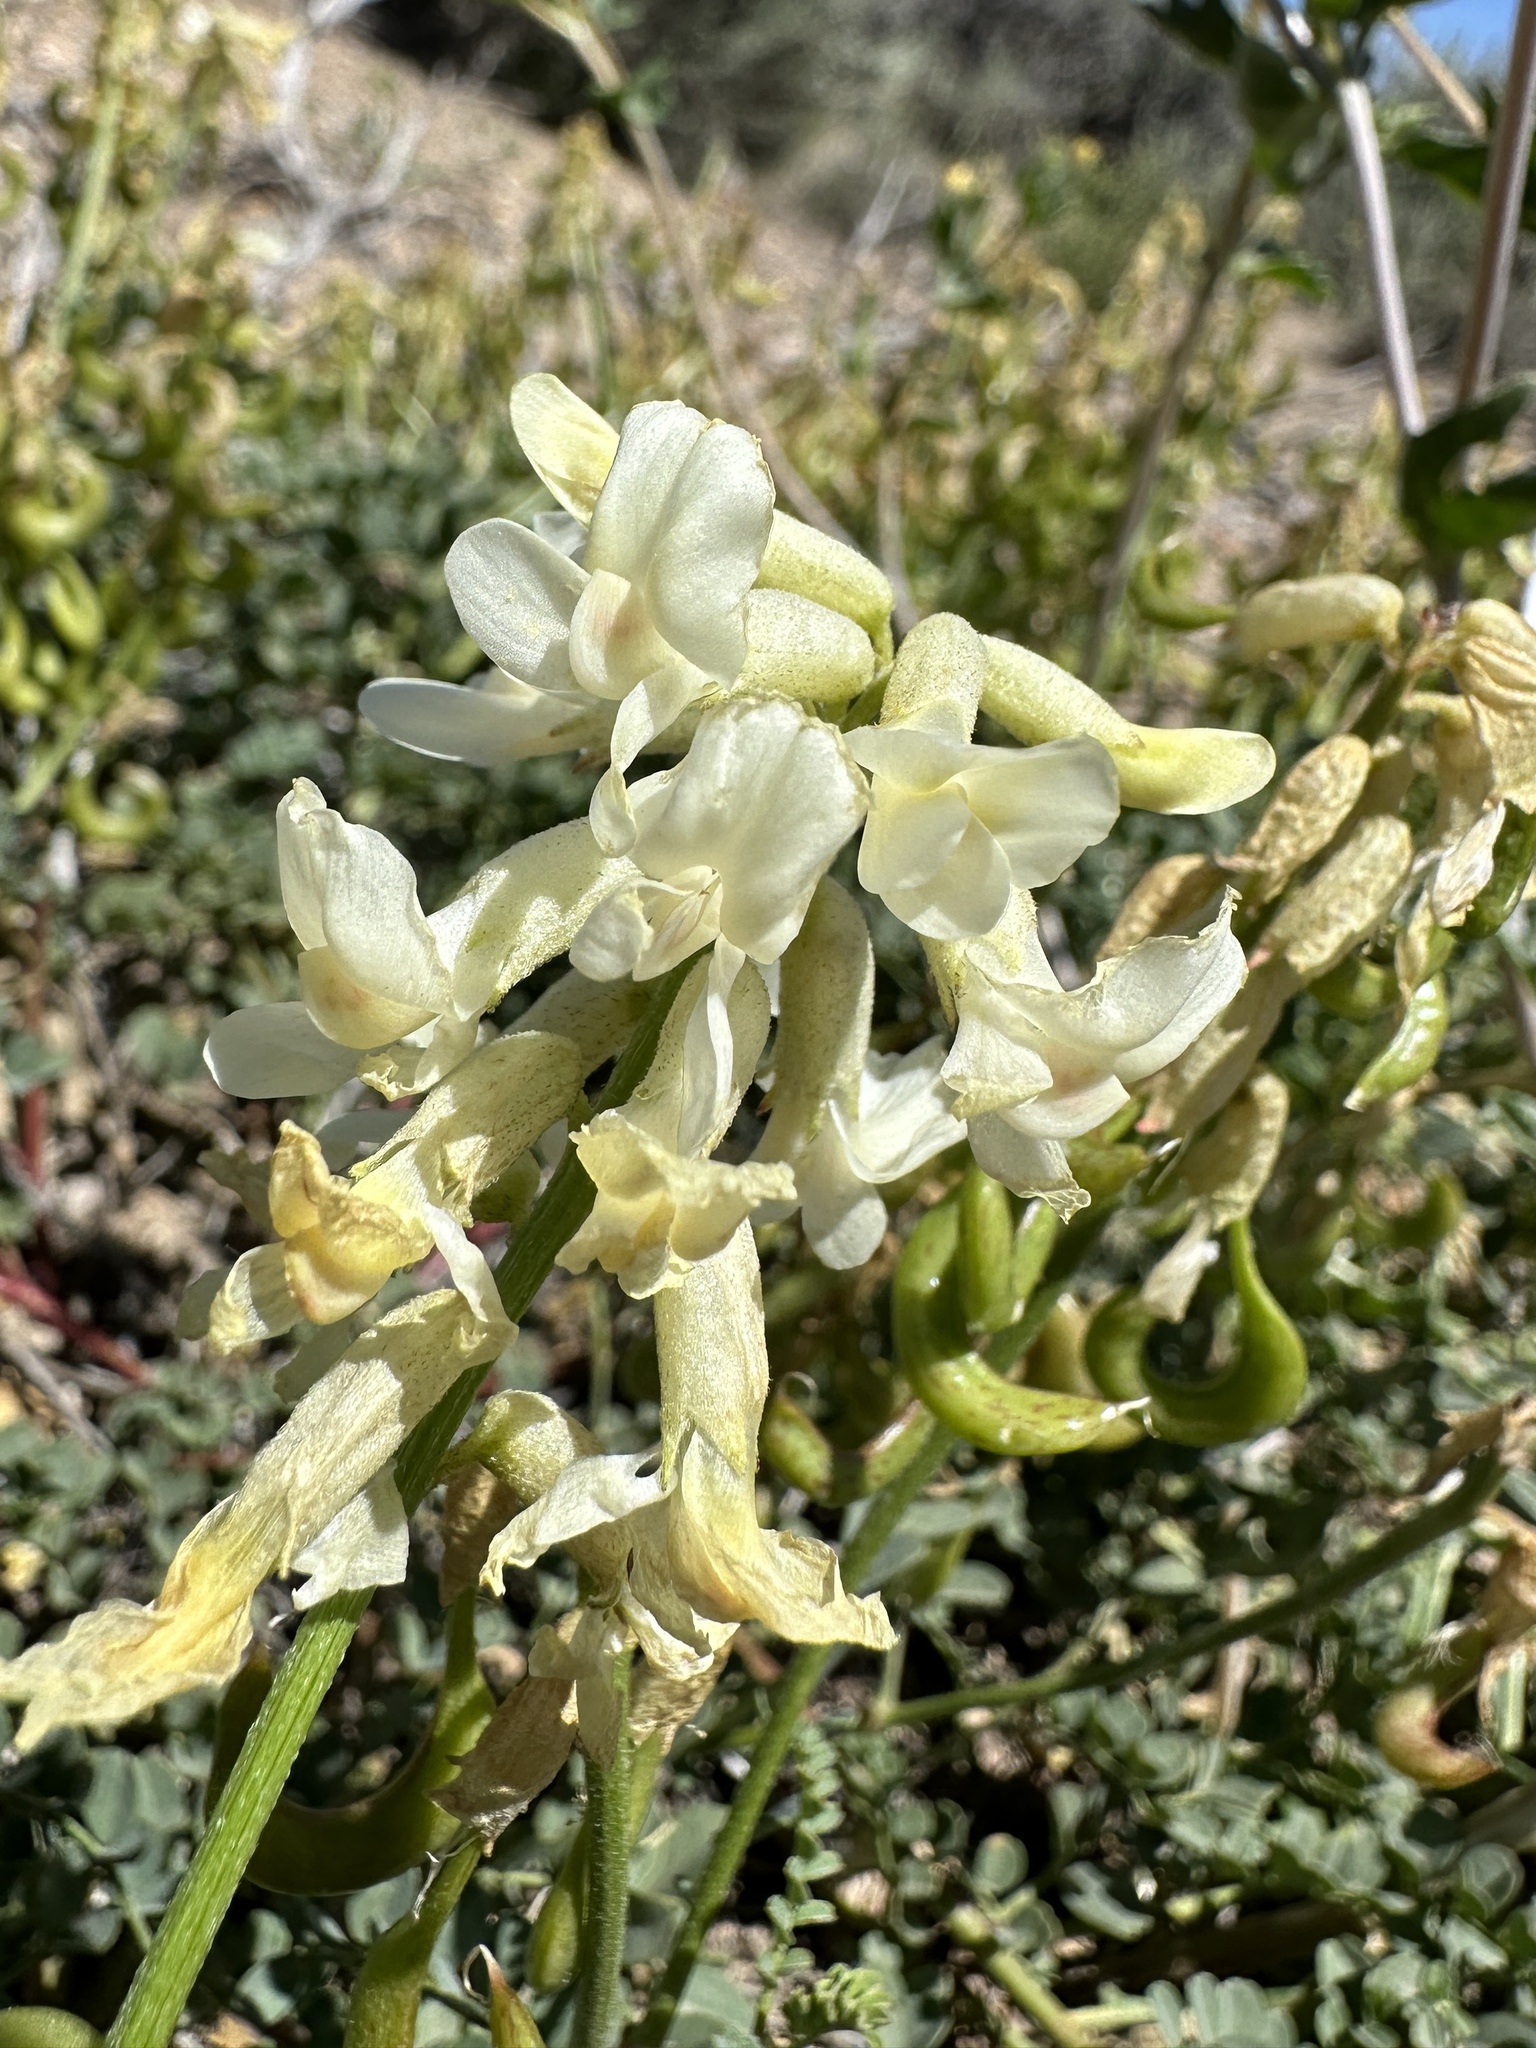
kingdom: Plantae
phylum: Tracheophyta
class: Magnoliopsida
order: Fabales
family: Fabaceae
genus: Astragalus
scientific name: Astragalus curvicarpus
